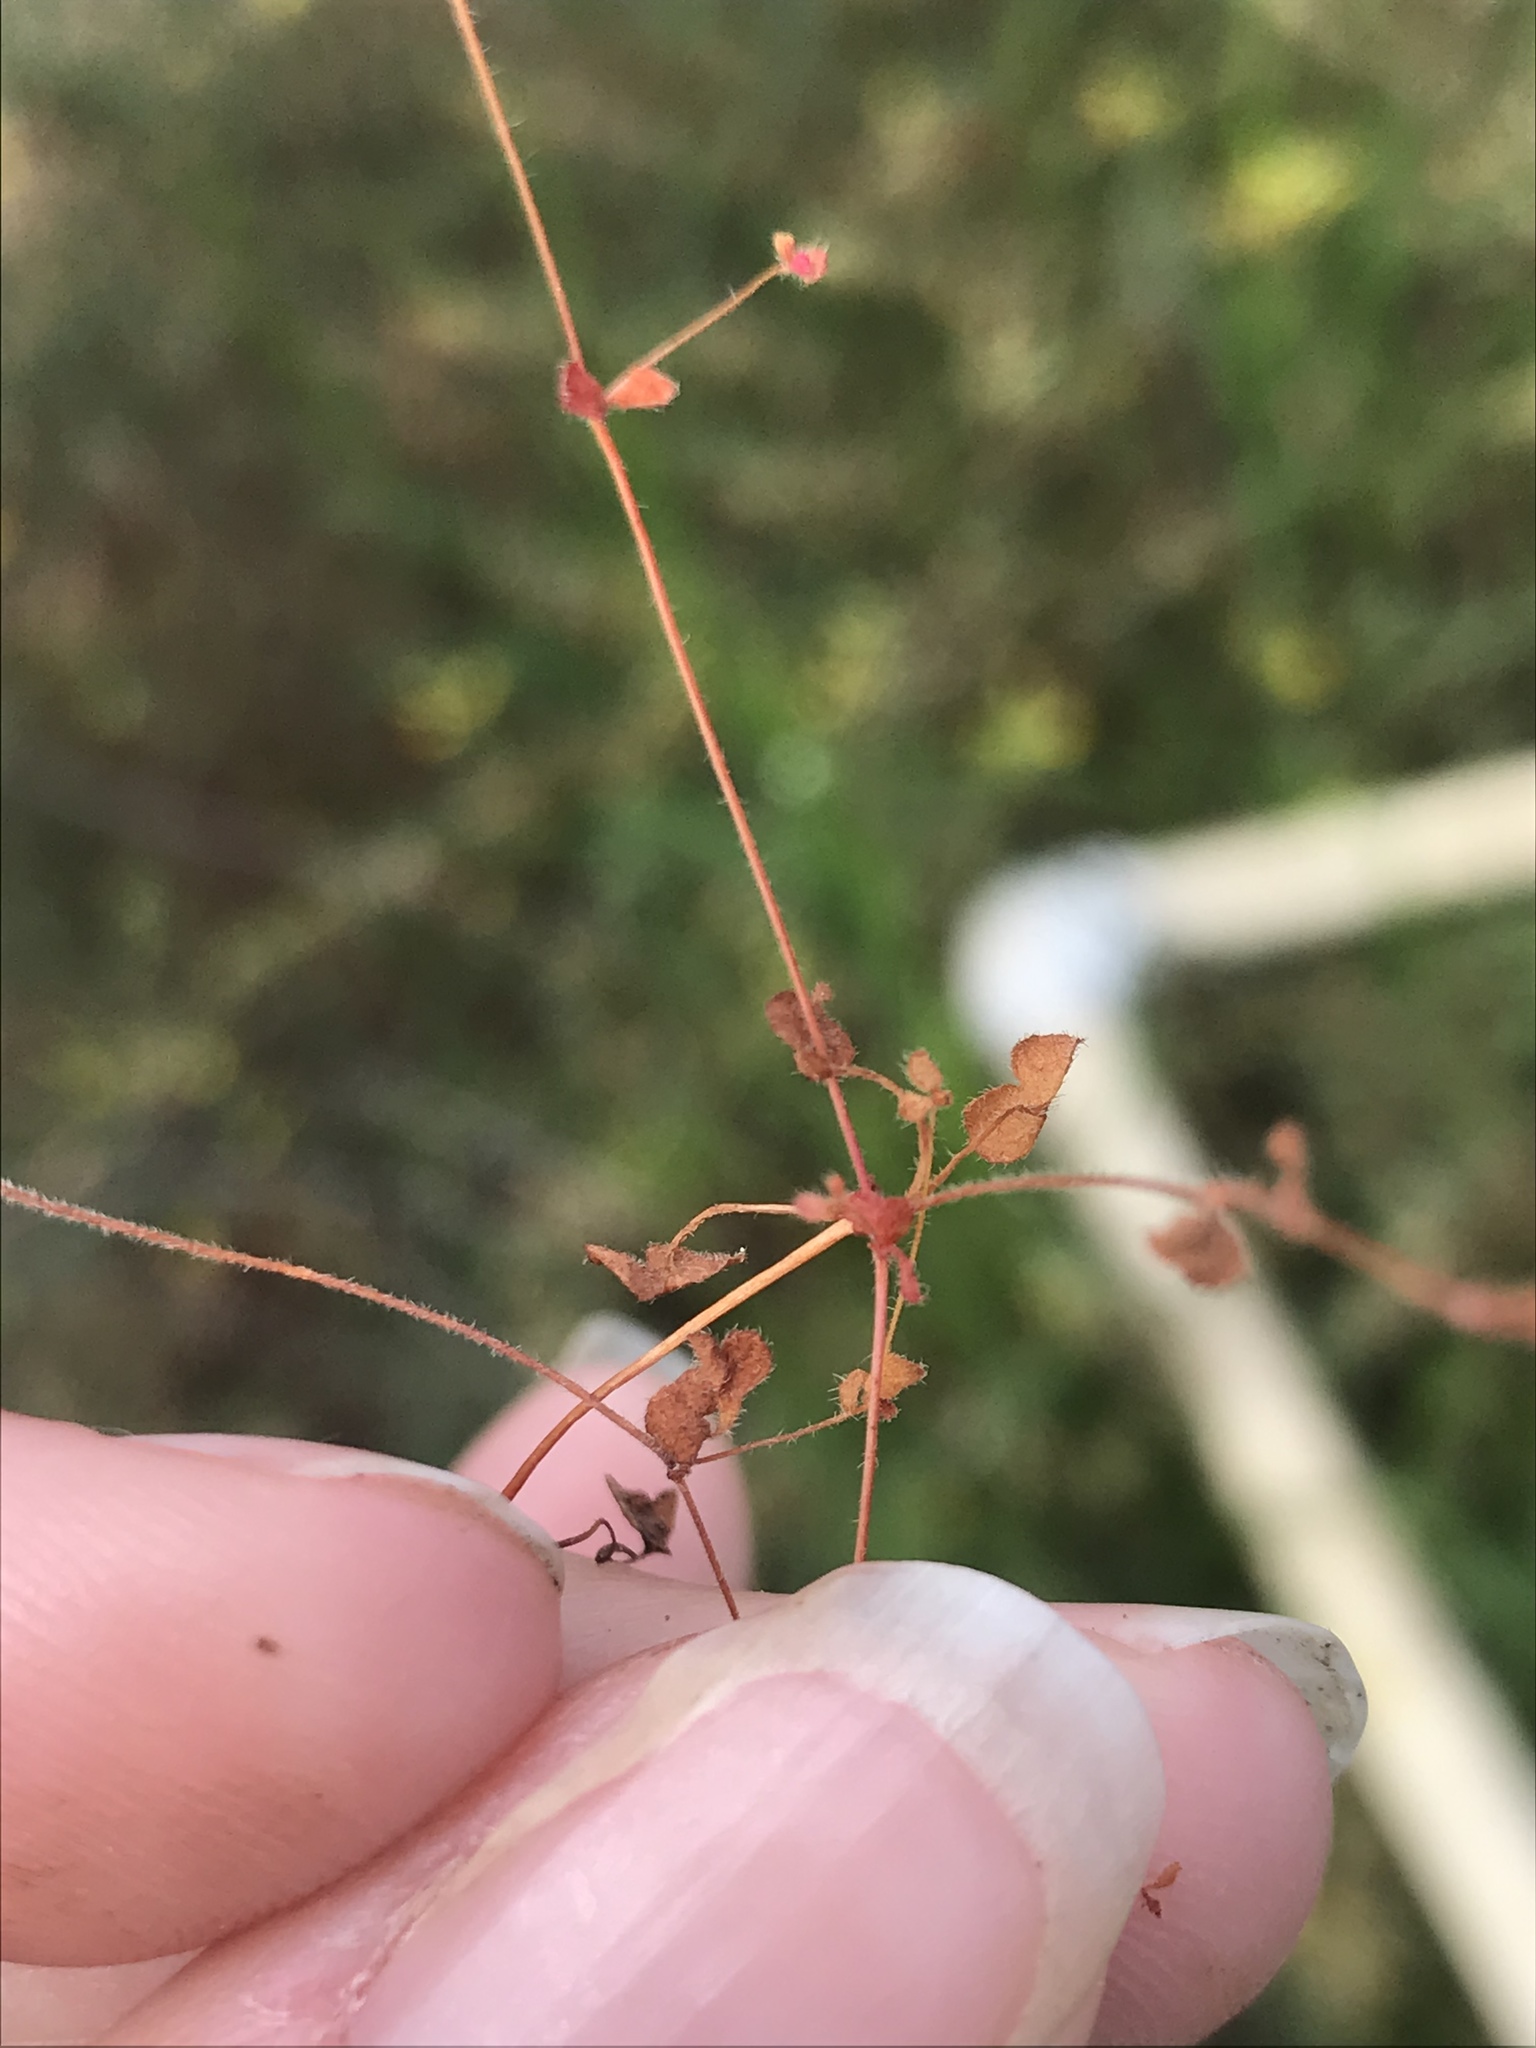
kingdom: Plantae
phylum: Tracheophyta
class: Magnoliopsida
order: Caryophyllales
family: Polygonaceae
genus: Pterostegia
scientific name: Pterostegia drymarioides
